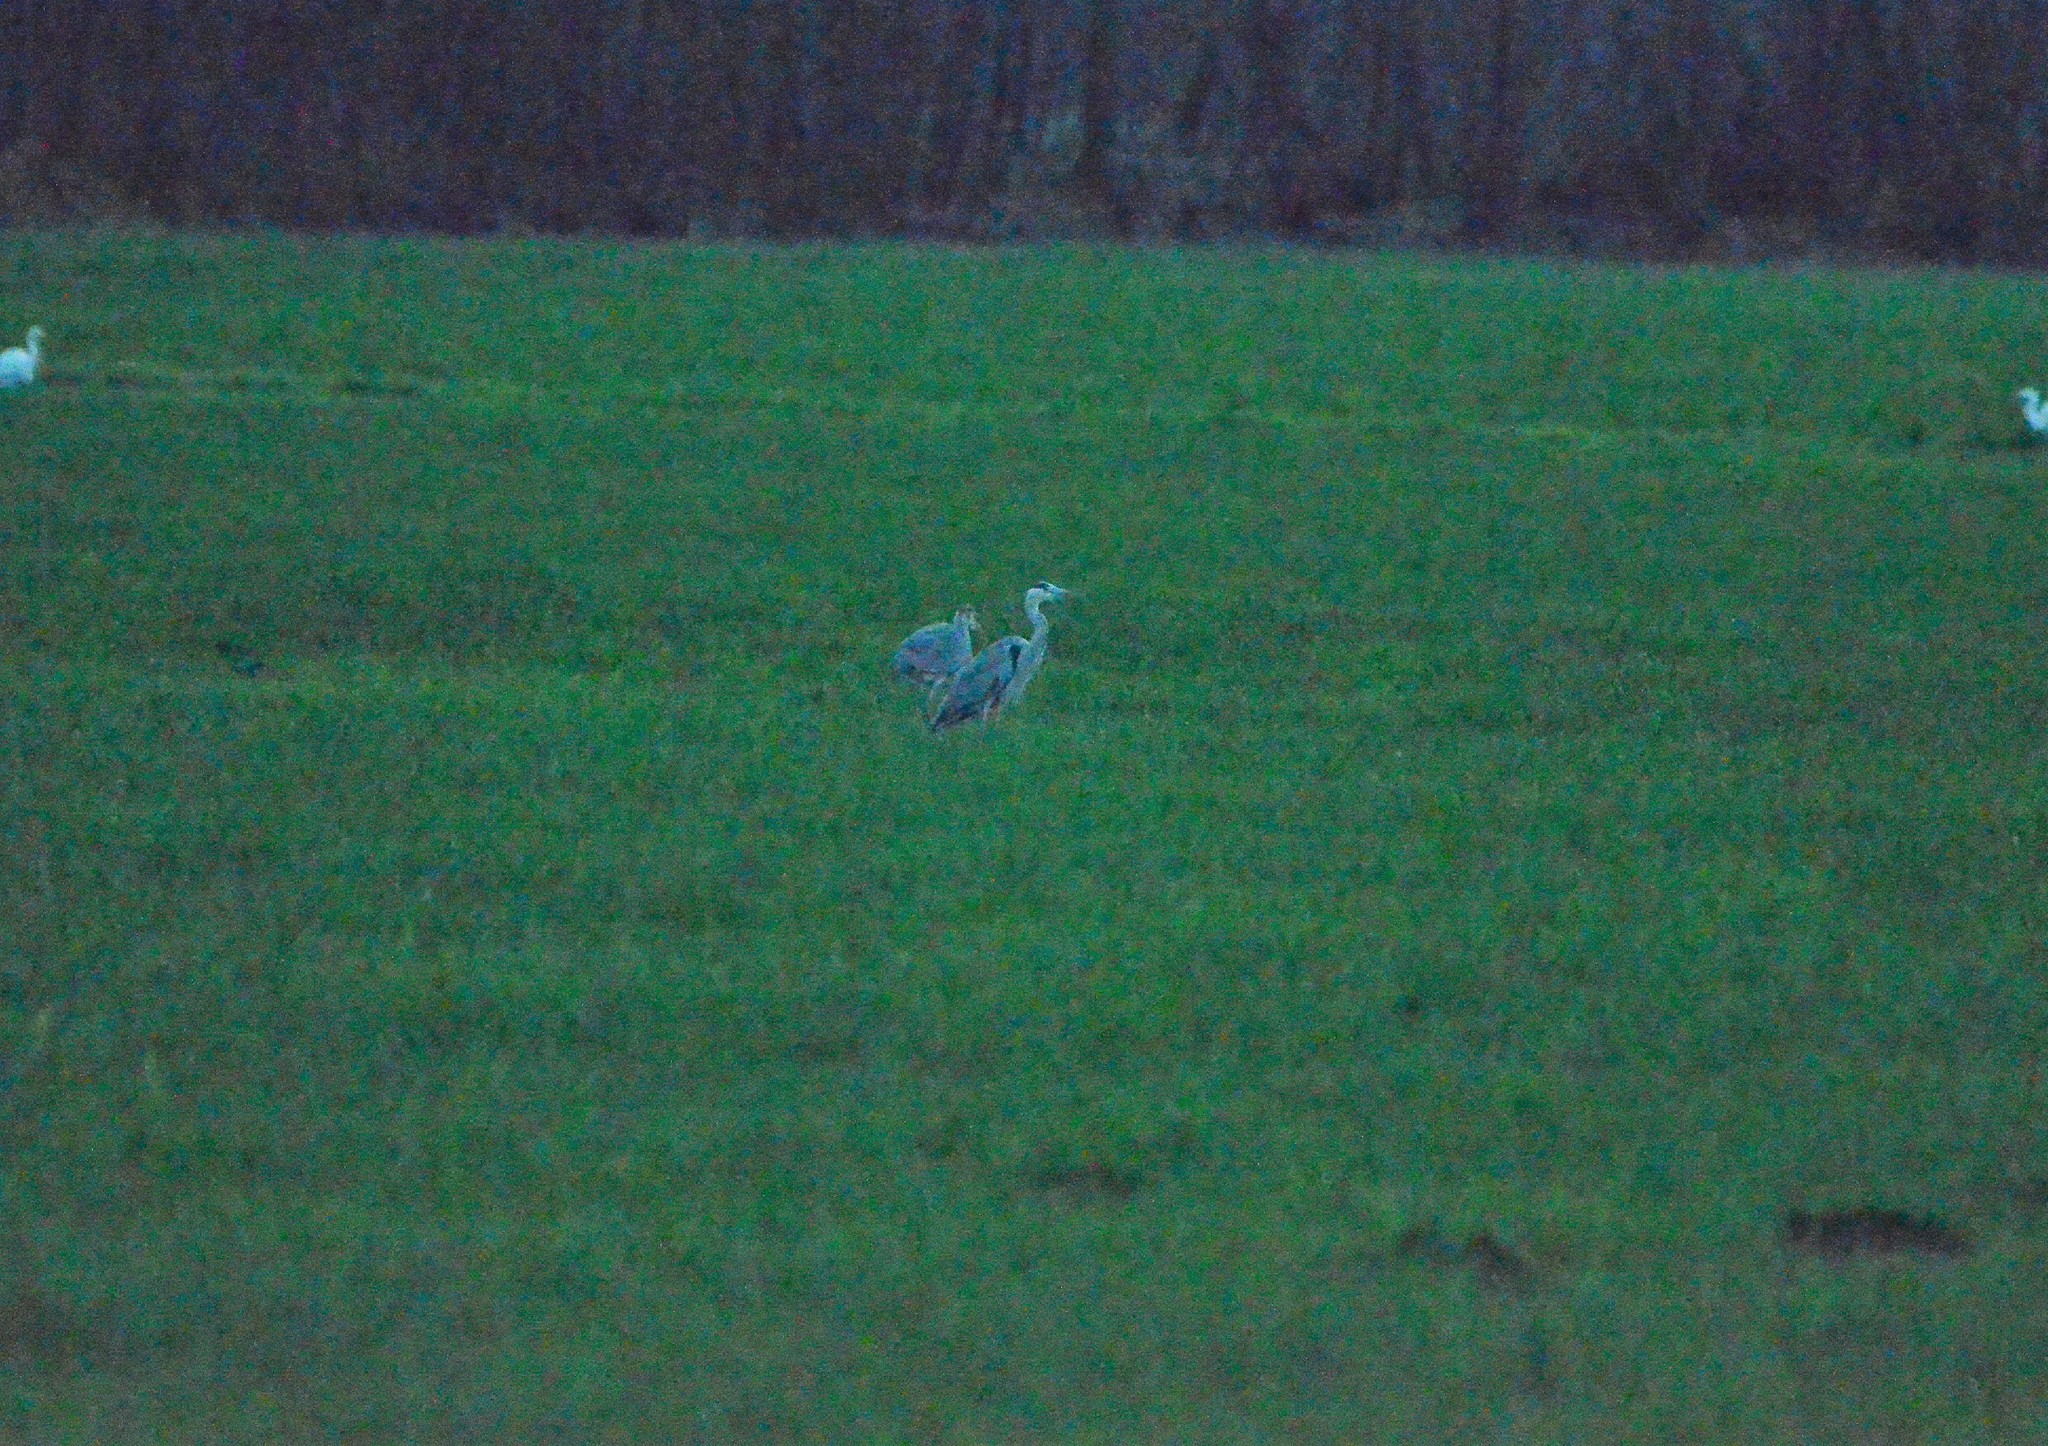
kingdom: Animalia
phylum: Chordata
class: Aves
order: Pelecaniformes
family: Ardeidae
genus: Ardea
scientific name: Ardea cinerea
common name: Grey heron
